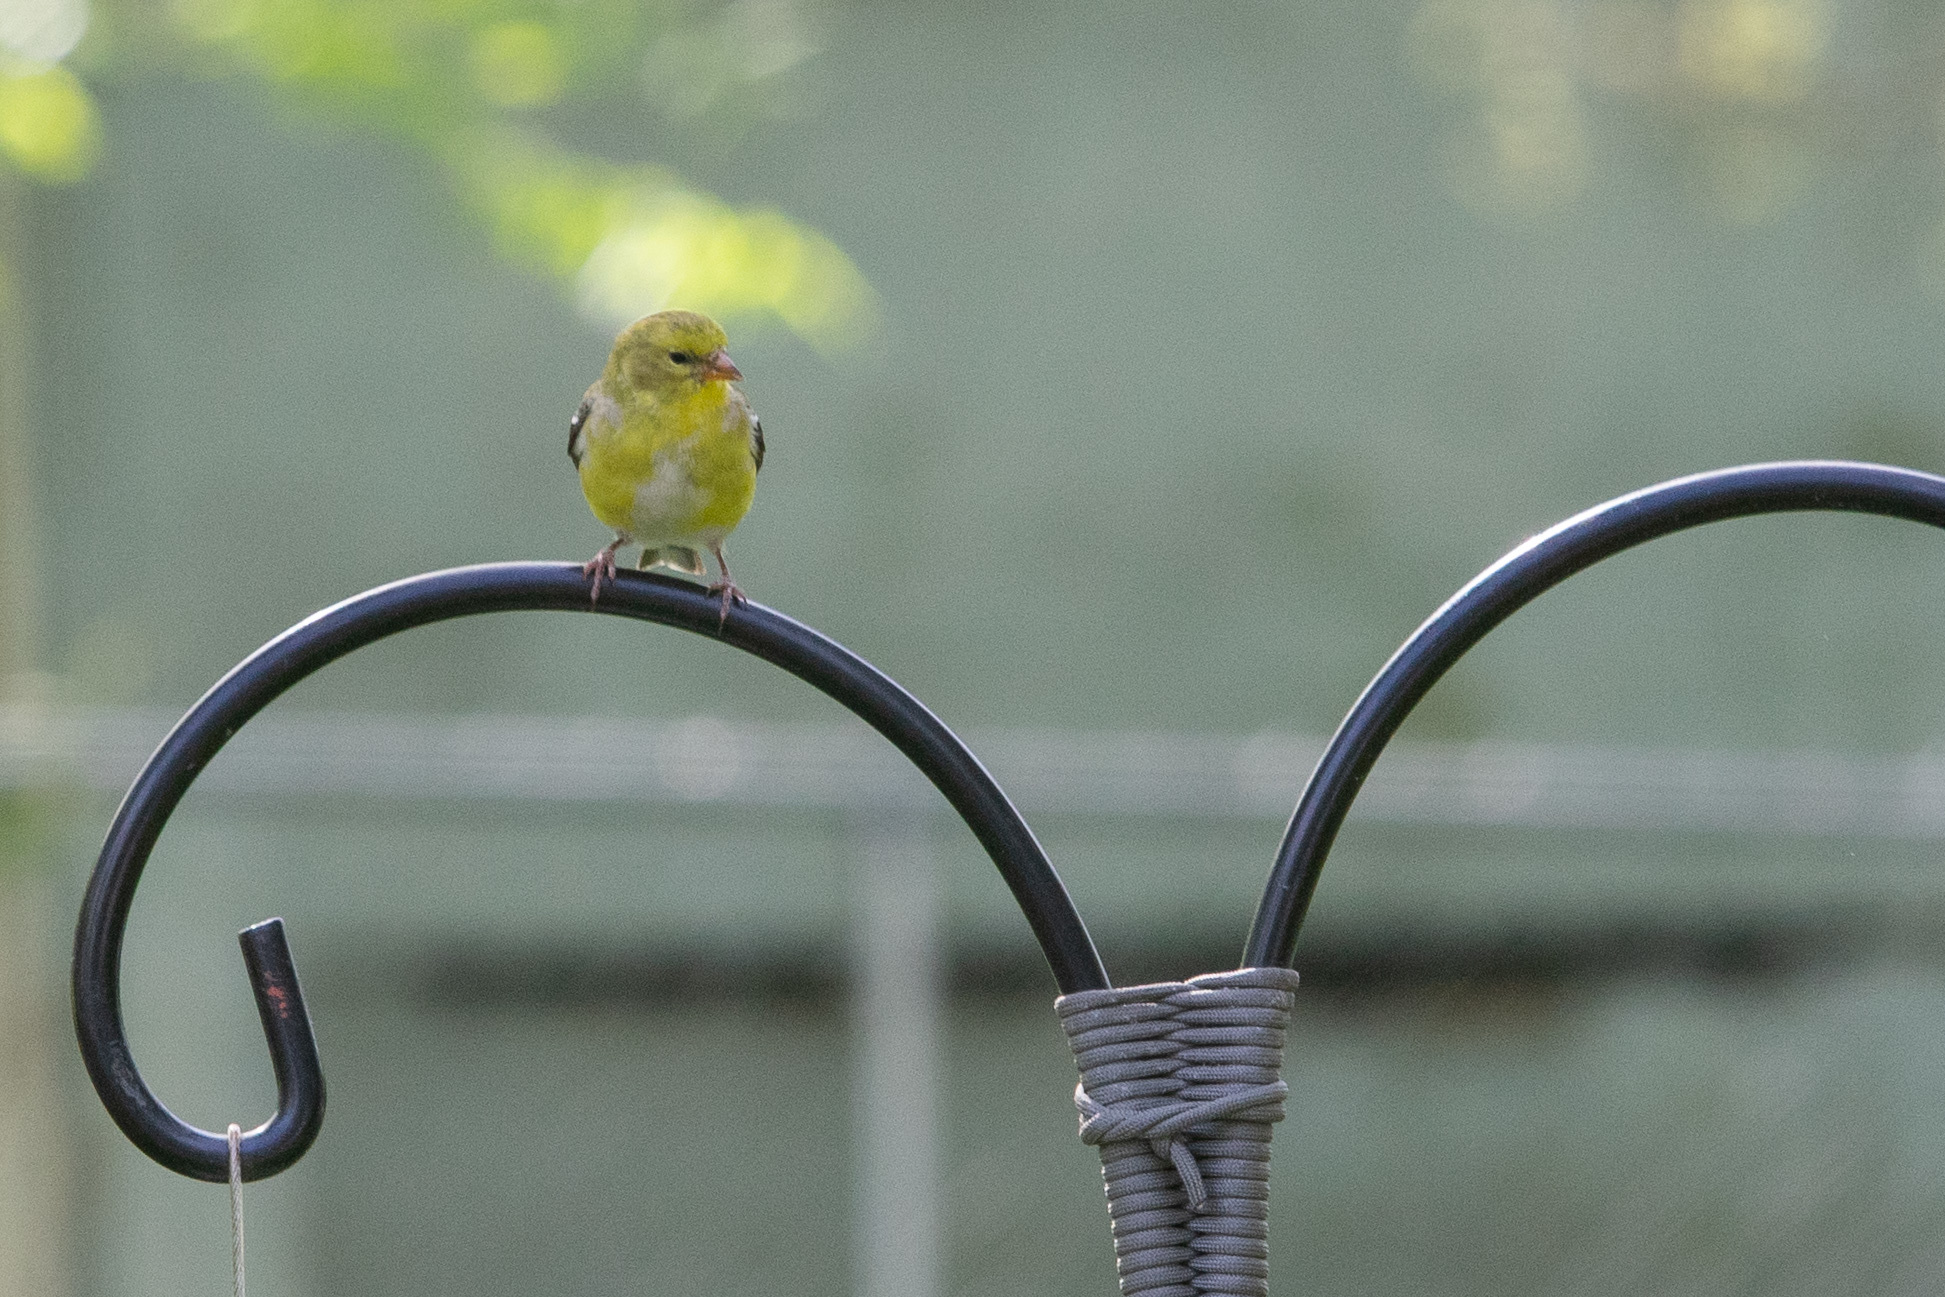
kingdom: Animalia
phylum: Chordata
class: Aves
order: Passeriformes
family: Fringillidae
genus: Spinus
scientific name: Spinus tristis
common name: American goldfinch
